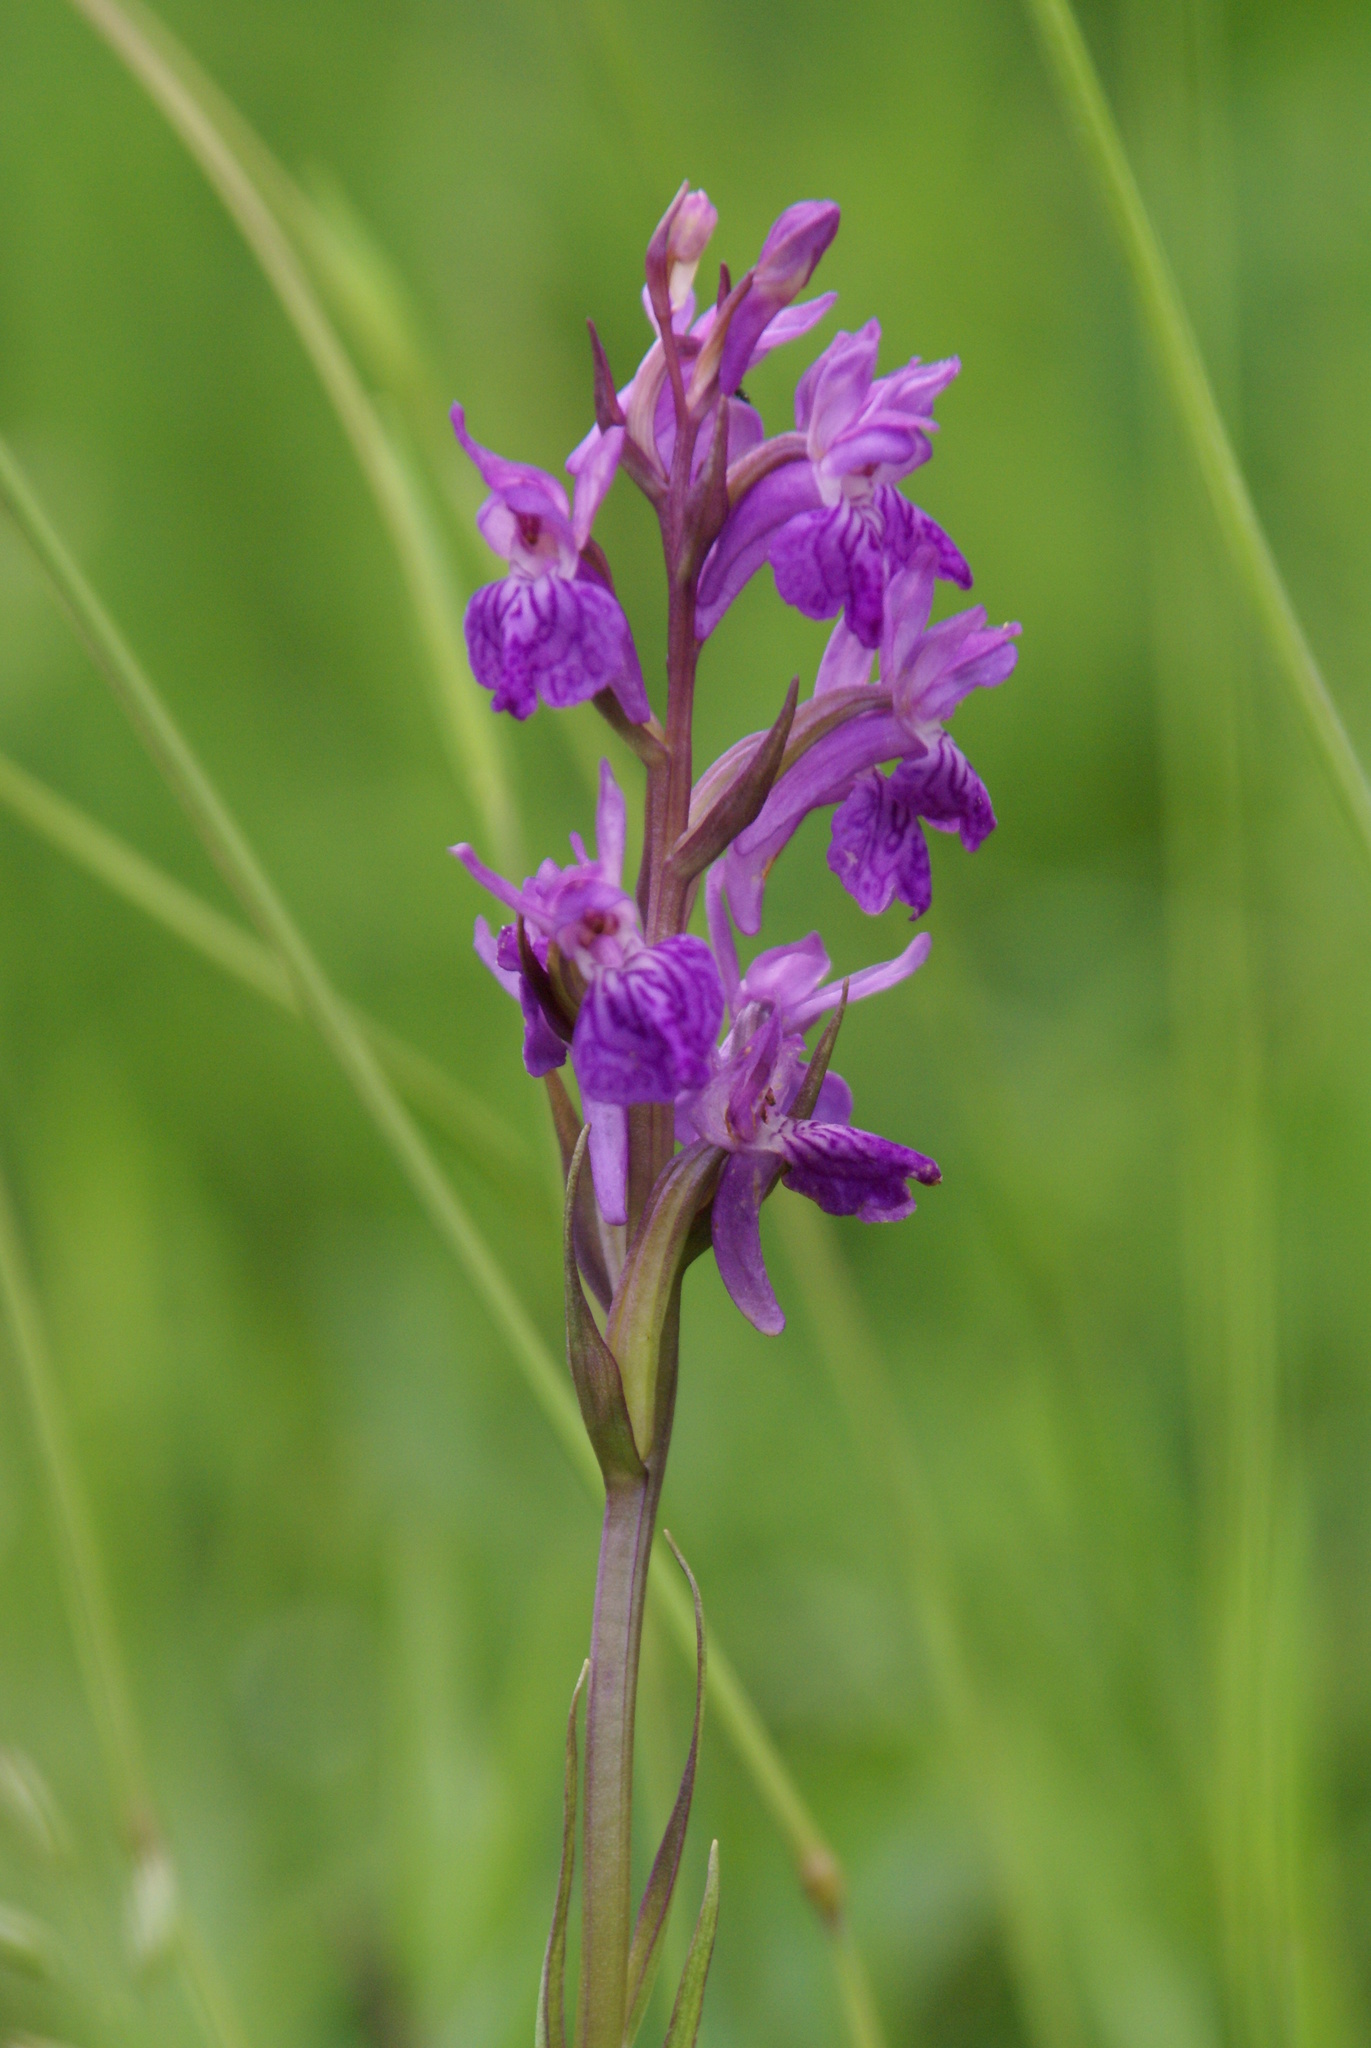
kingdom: Plantae
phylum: Tracheophyta
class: Liliopsida
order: Asparagales
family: Orchidaceae
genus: Dactylorhiza
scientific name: Dactylorhiza elata
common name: Stately dactylorhiza
